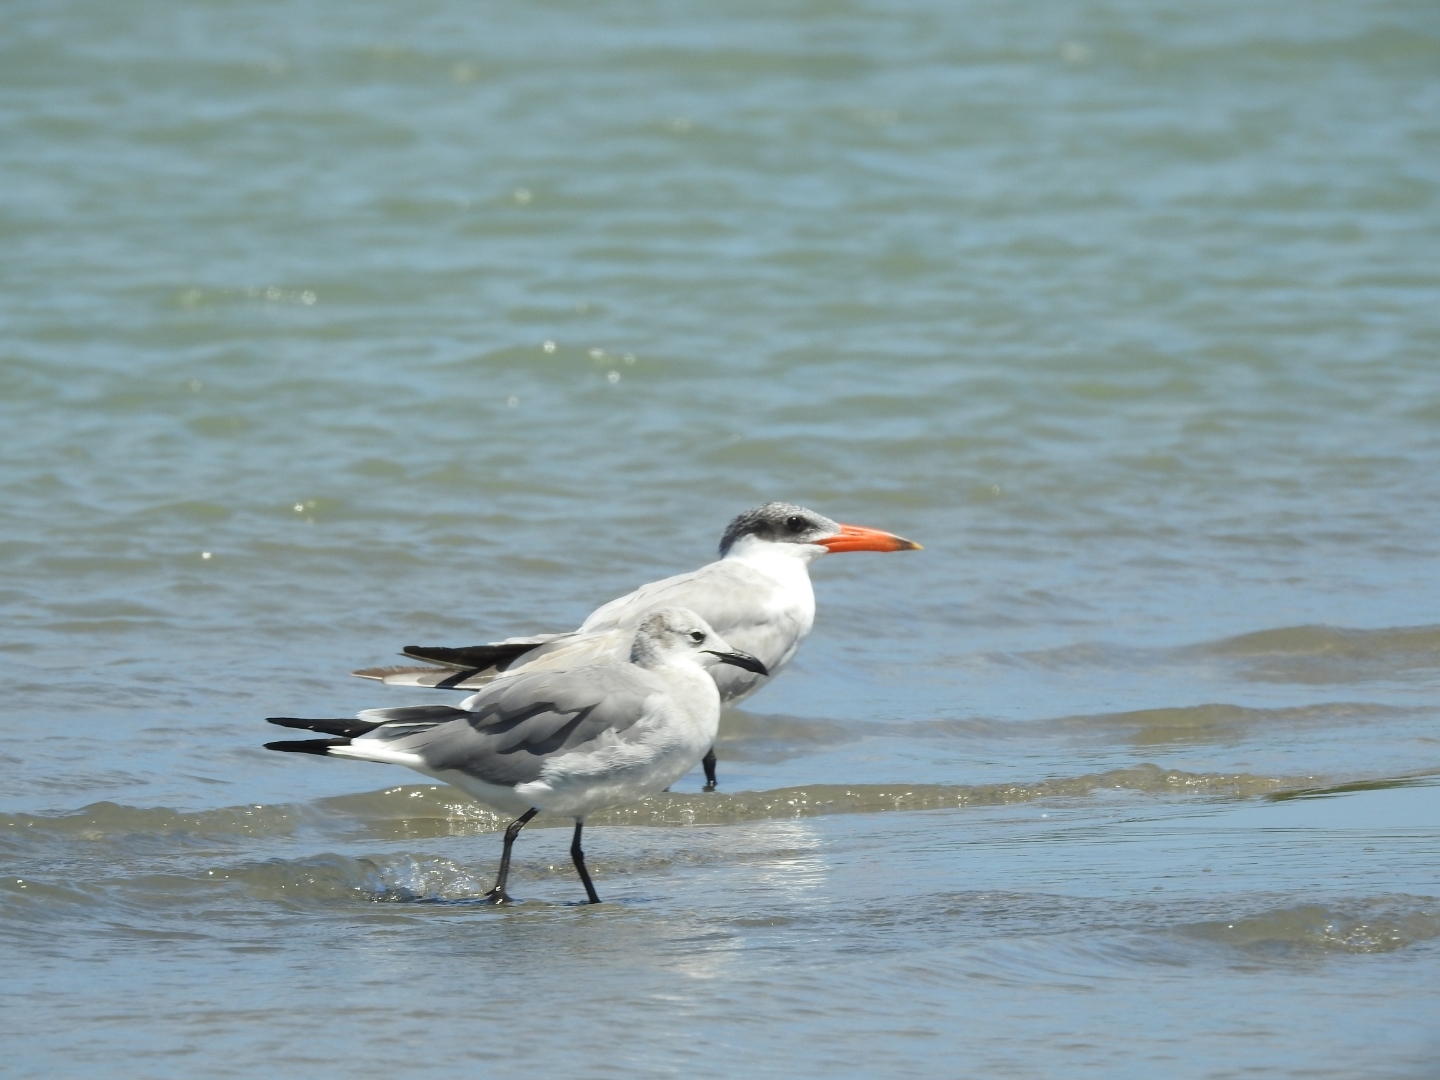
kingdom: Animalia
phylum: Chordata
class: Aves
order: Charadriiformes
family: Laridae
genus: Hydroprogne
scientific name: Hydroprogne caspia
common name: Caspian tern
